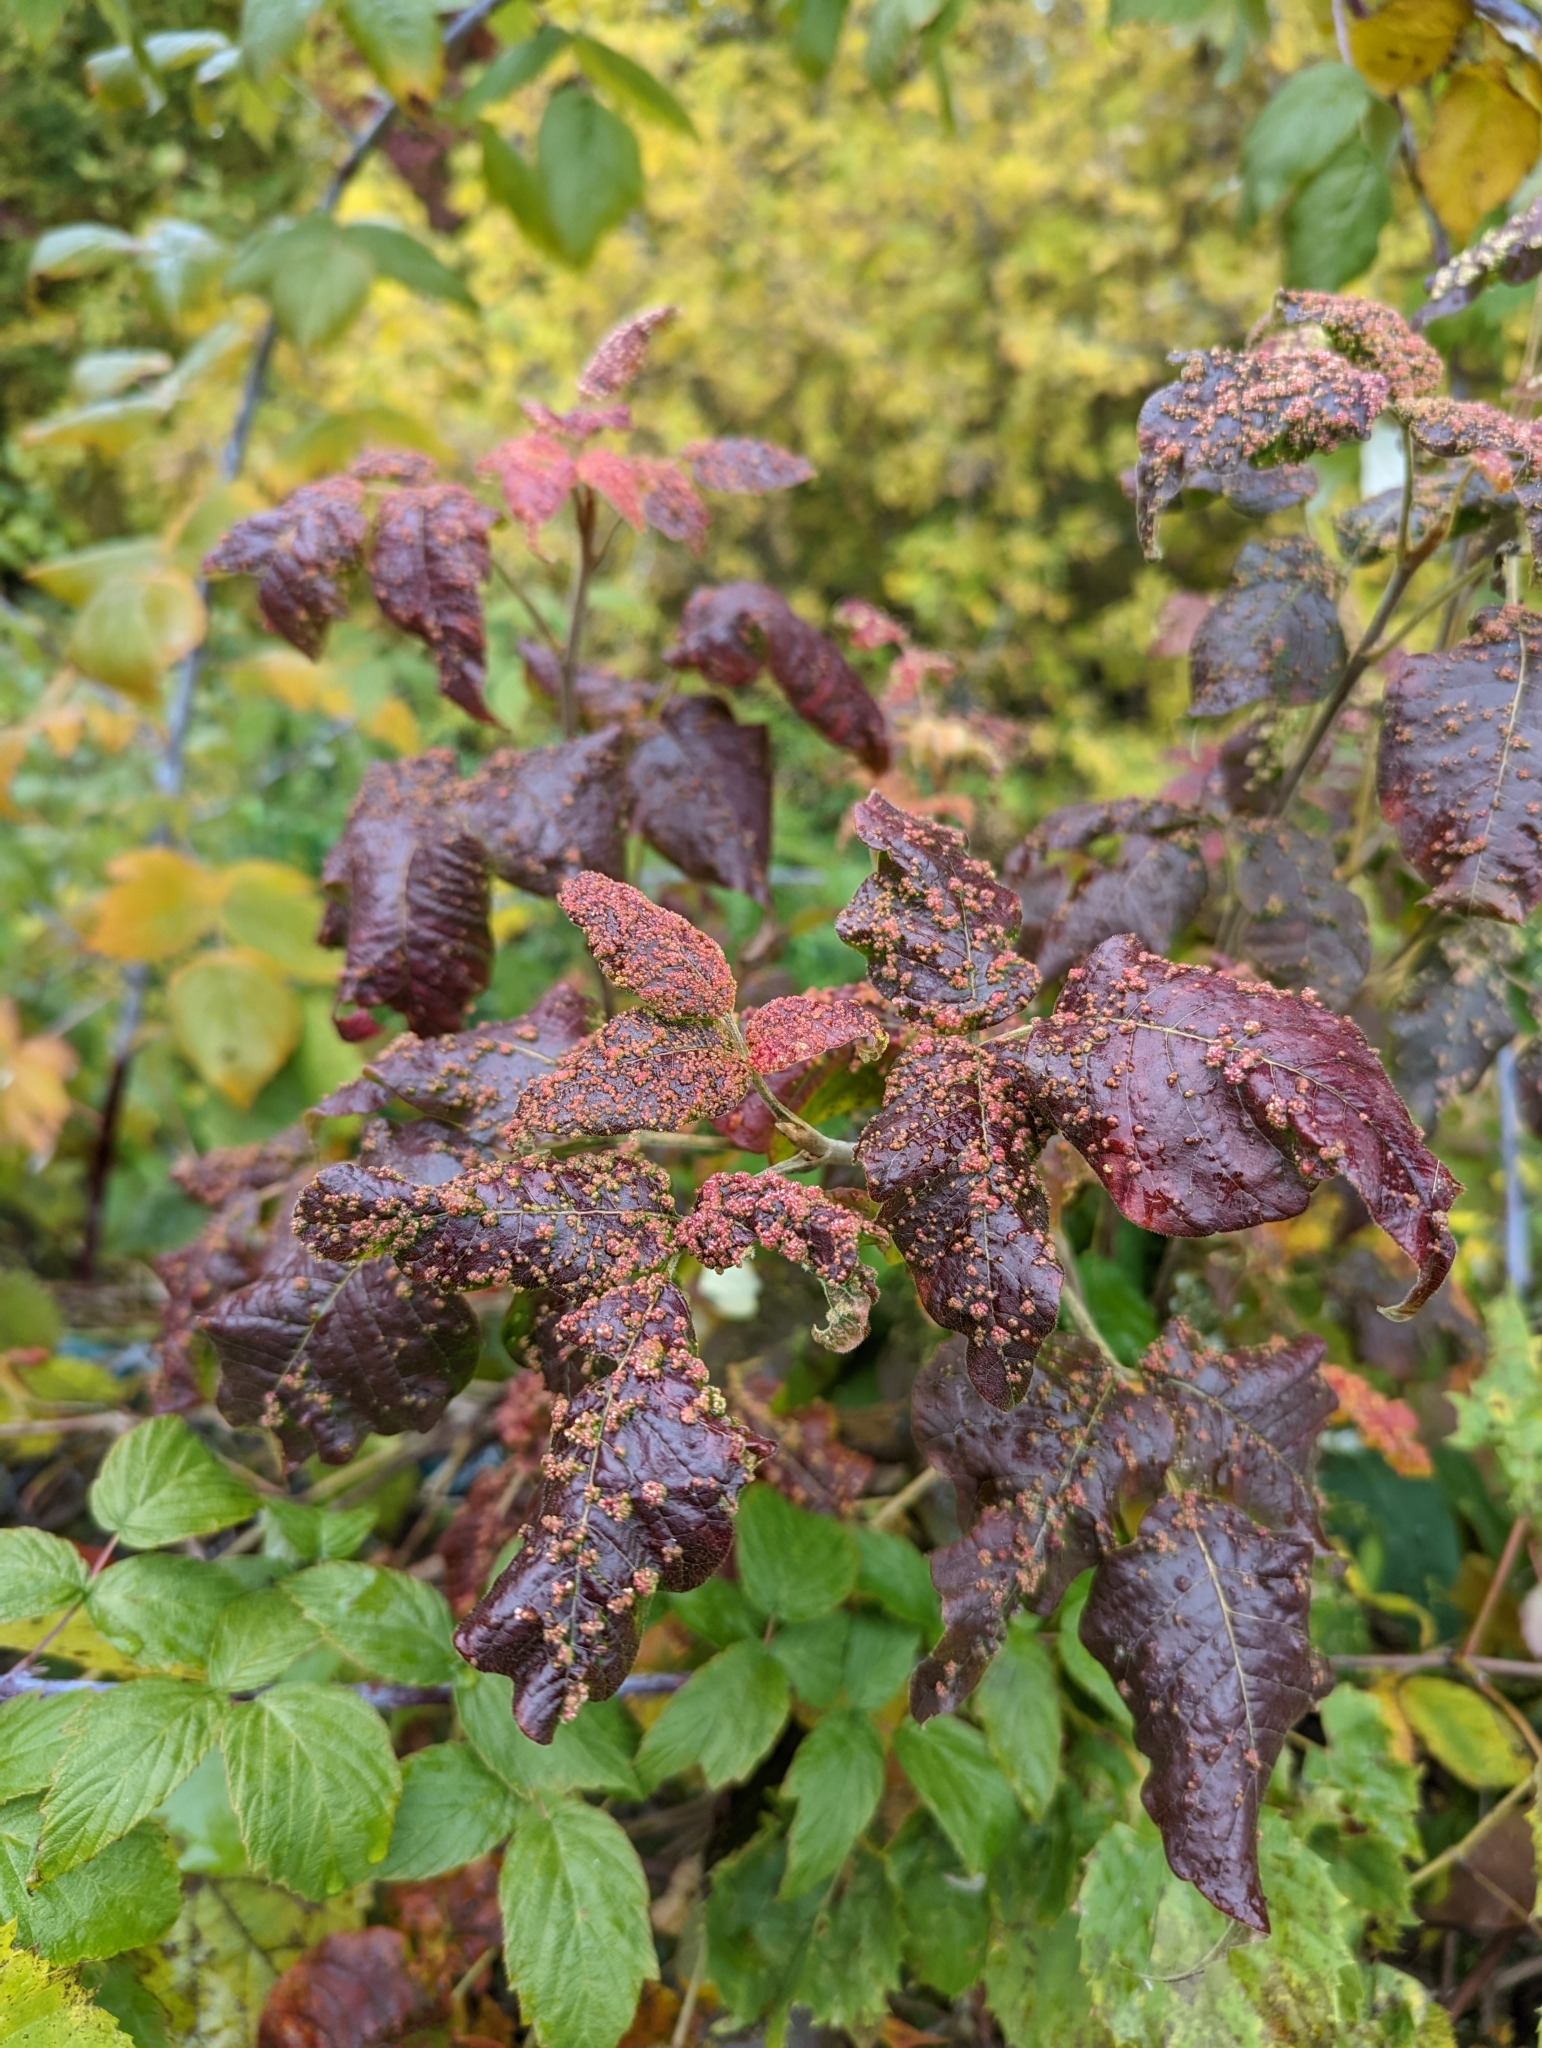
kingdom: Animalia
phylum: Arthropoda
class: Arachnida
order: Trombidiformes
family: Eriophyidae
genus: Aculops
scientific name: Aculops
